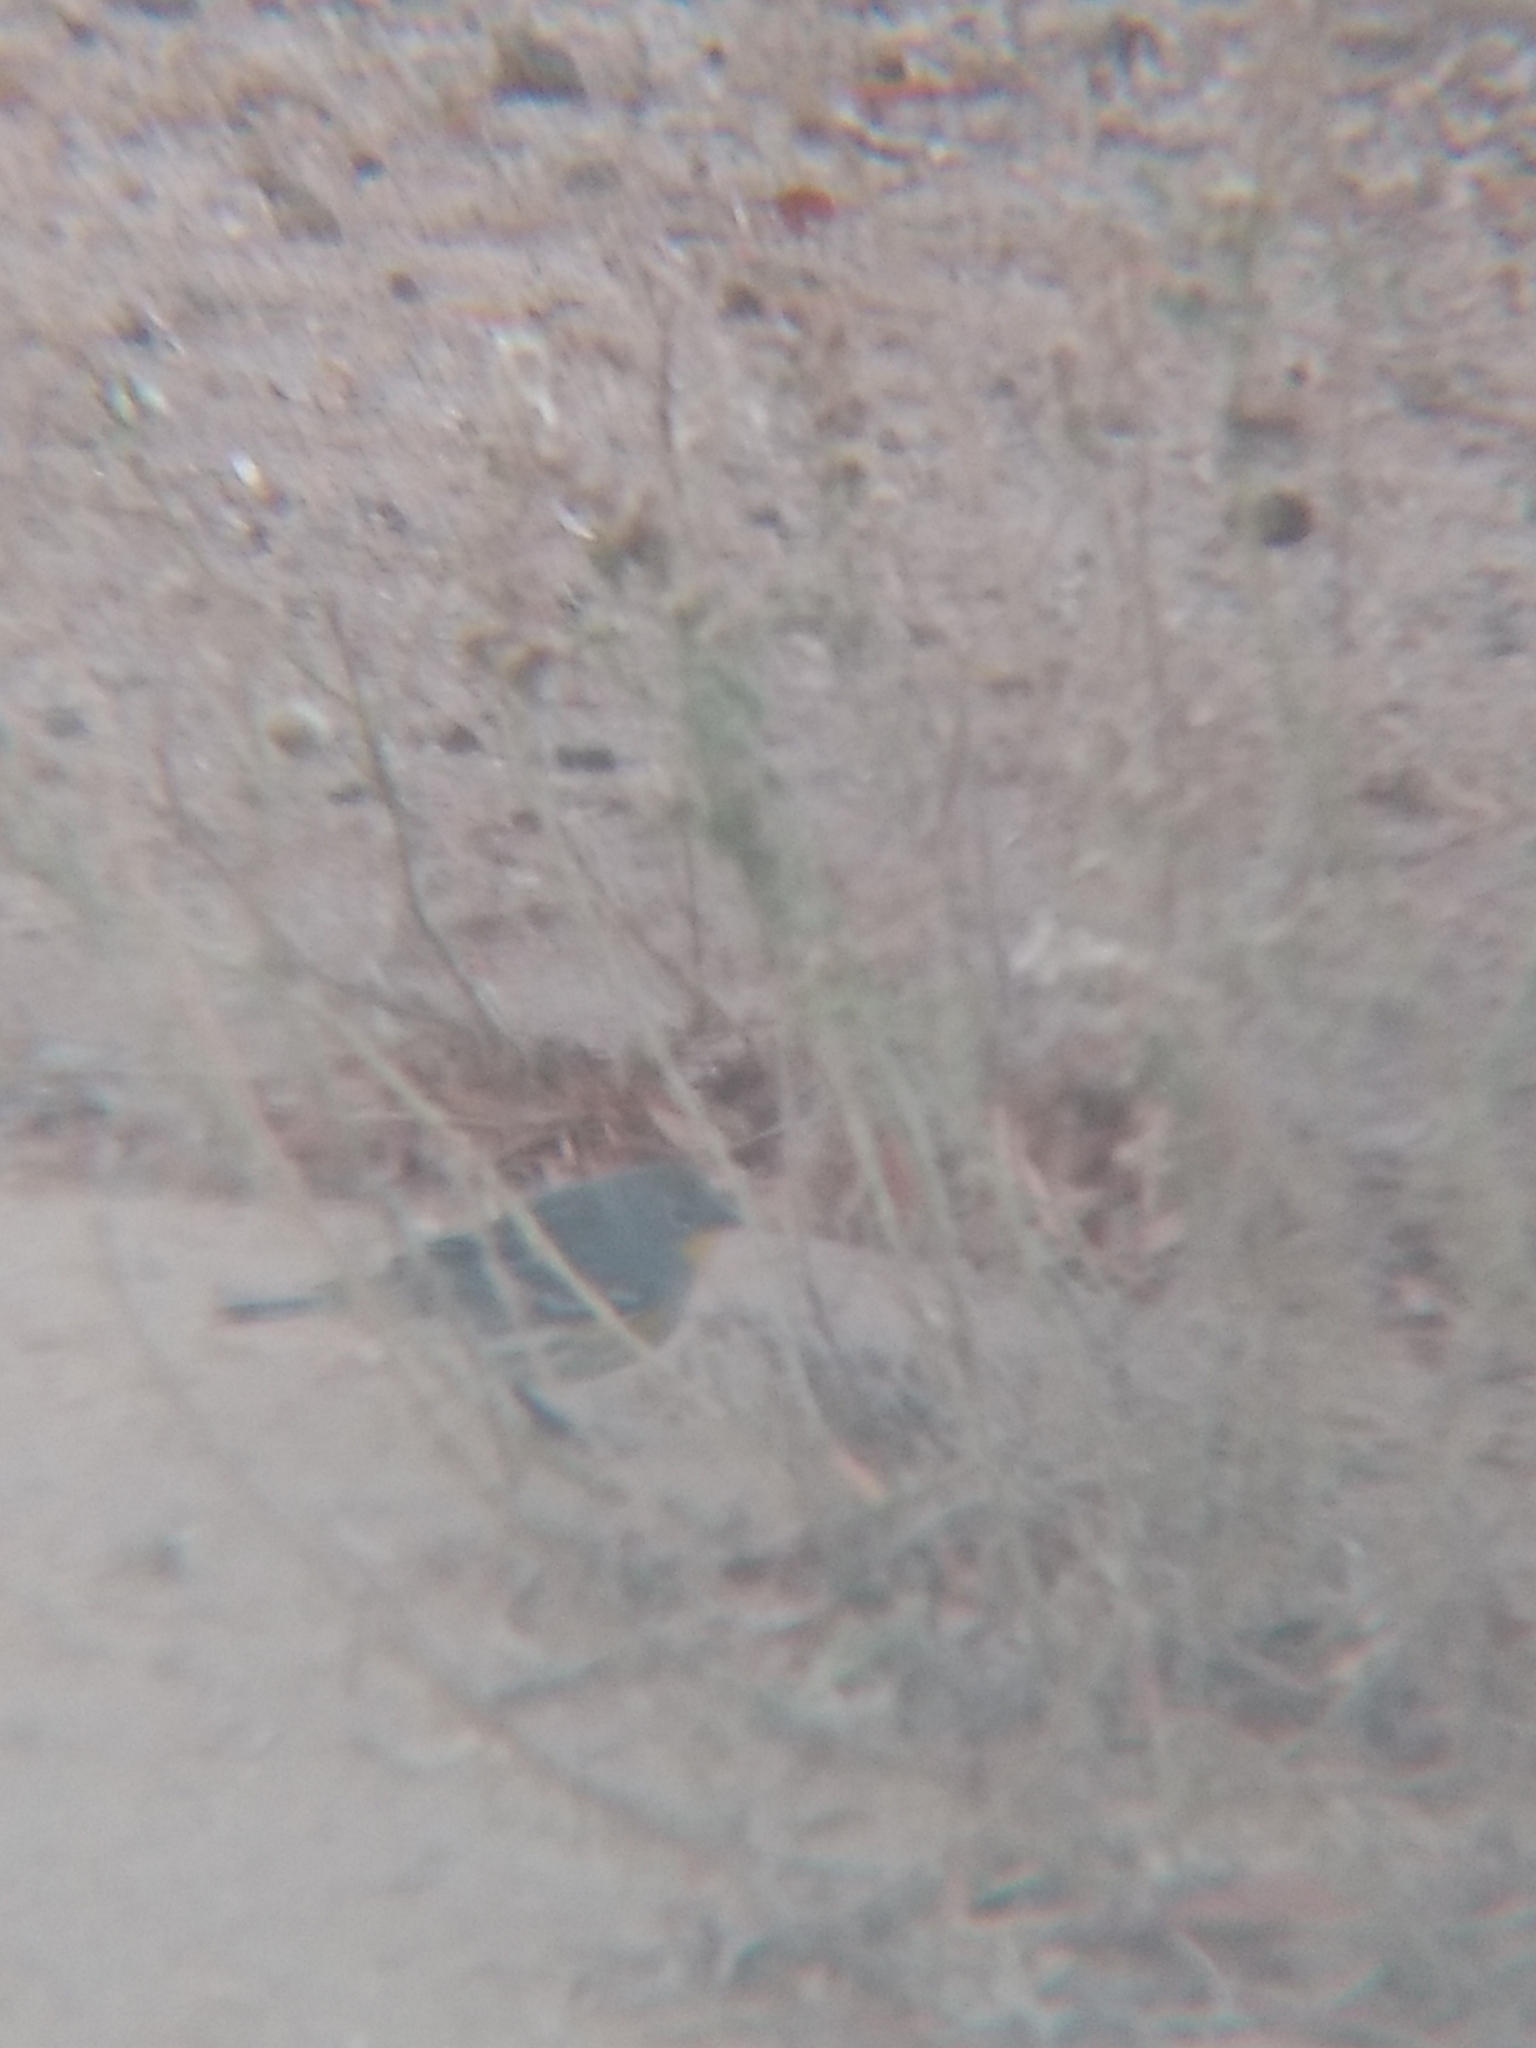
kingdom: Animalia
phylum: Chordata
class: Aves
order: Passeriformes
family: Parulidae
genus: Setophaga
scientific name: Setophaga coronata
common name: Myrtle warbler
